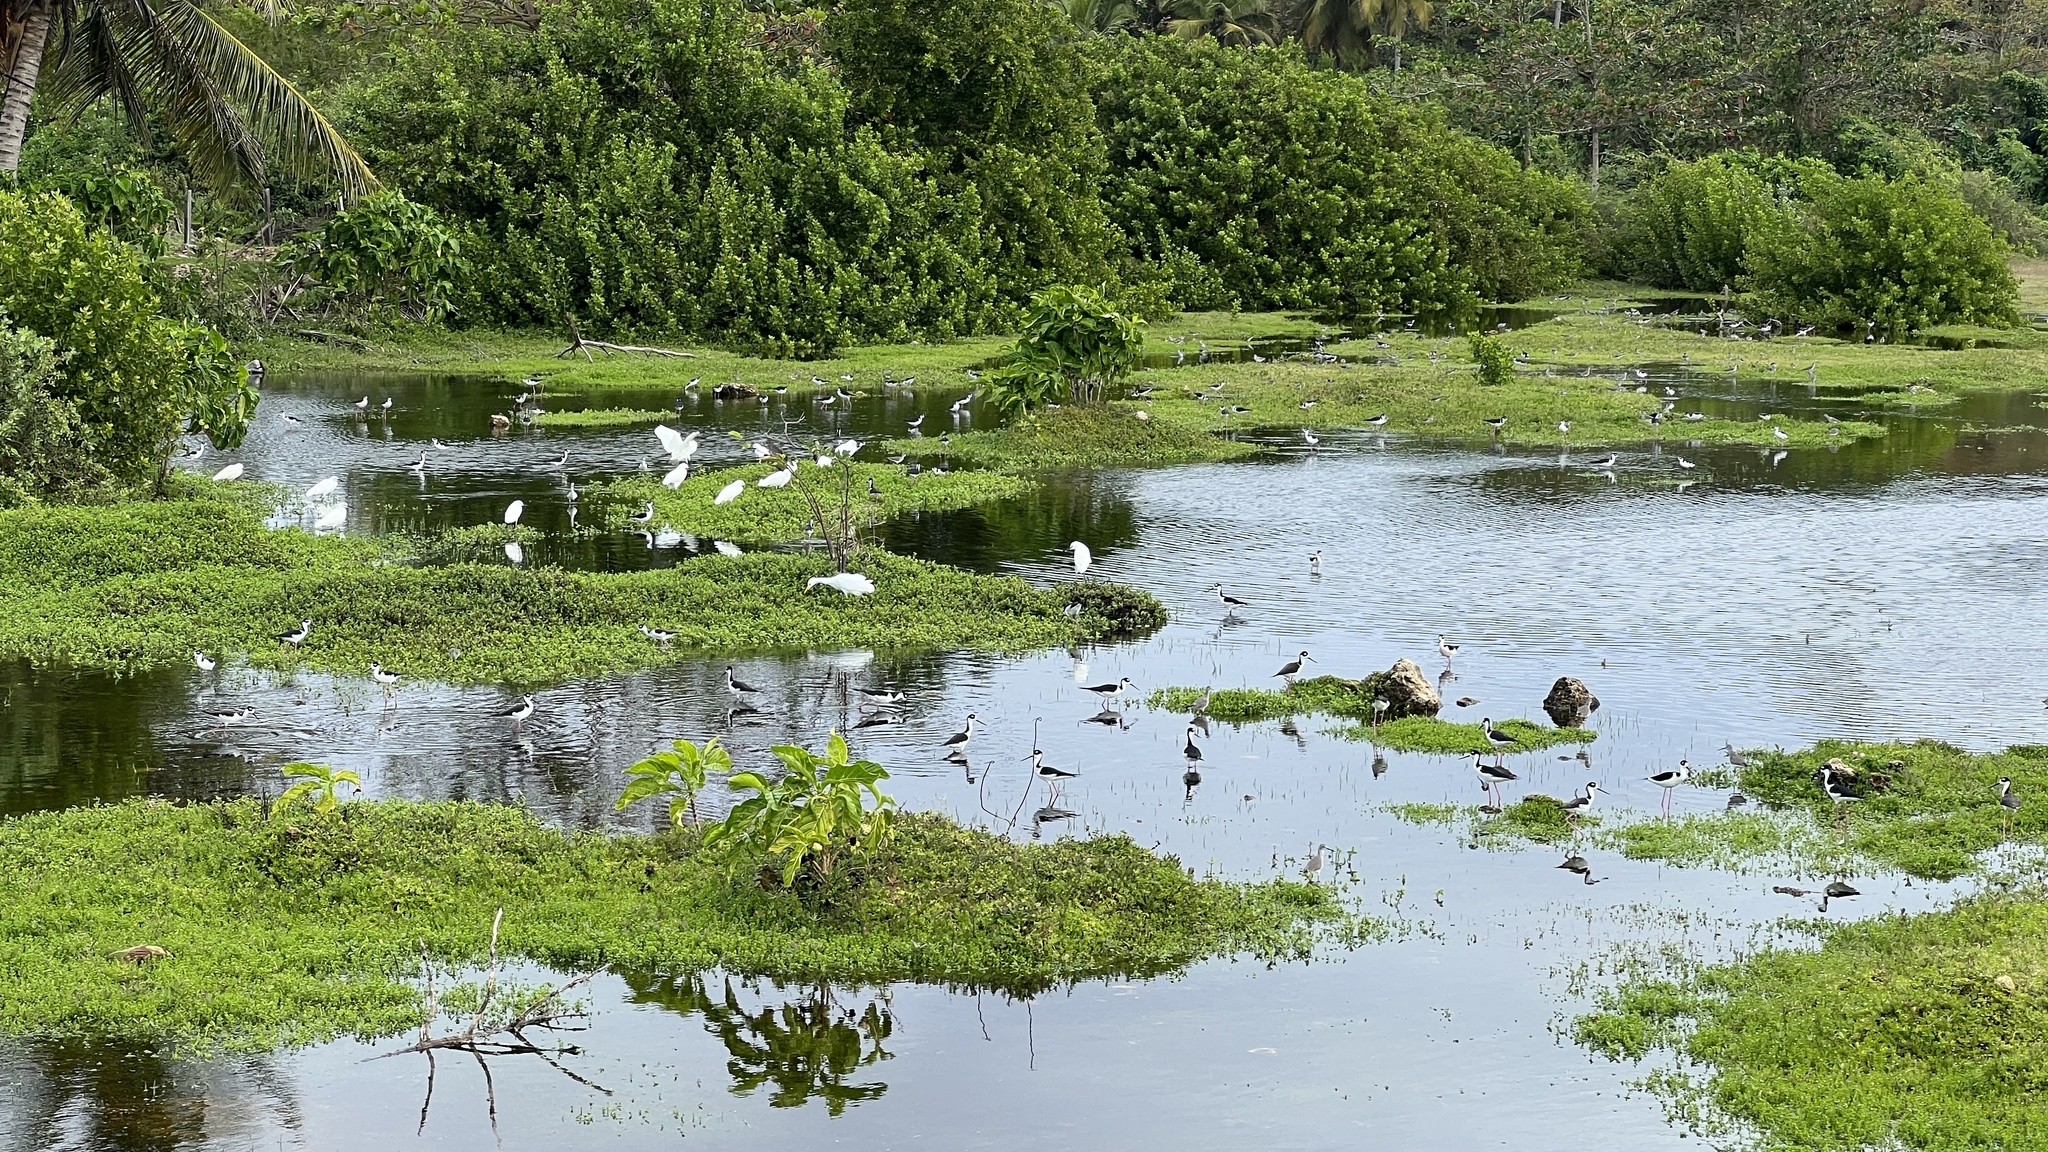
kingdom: Animalia
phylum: Chordata
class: Aves
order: Charadriiformes
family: Recurvirostridae
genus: Himantopus
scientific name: Himantopus mexicanus
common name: Black-necked stilt
